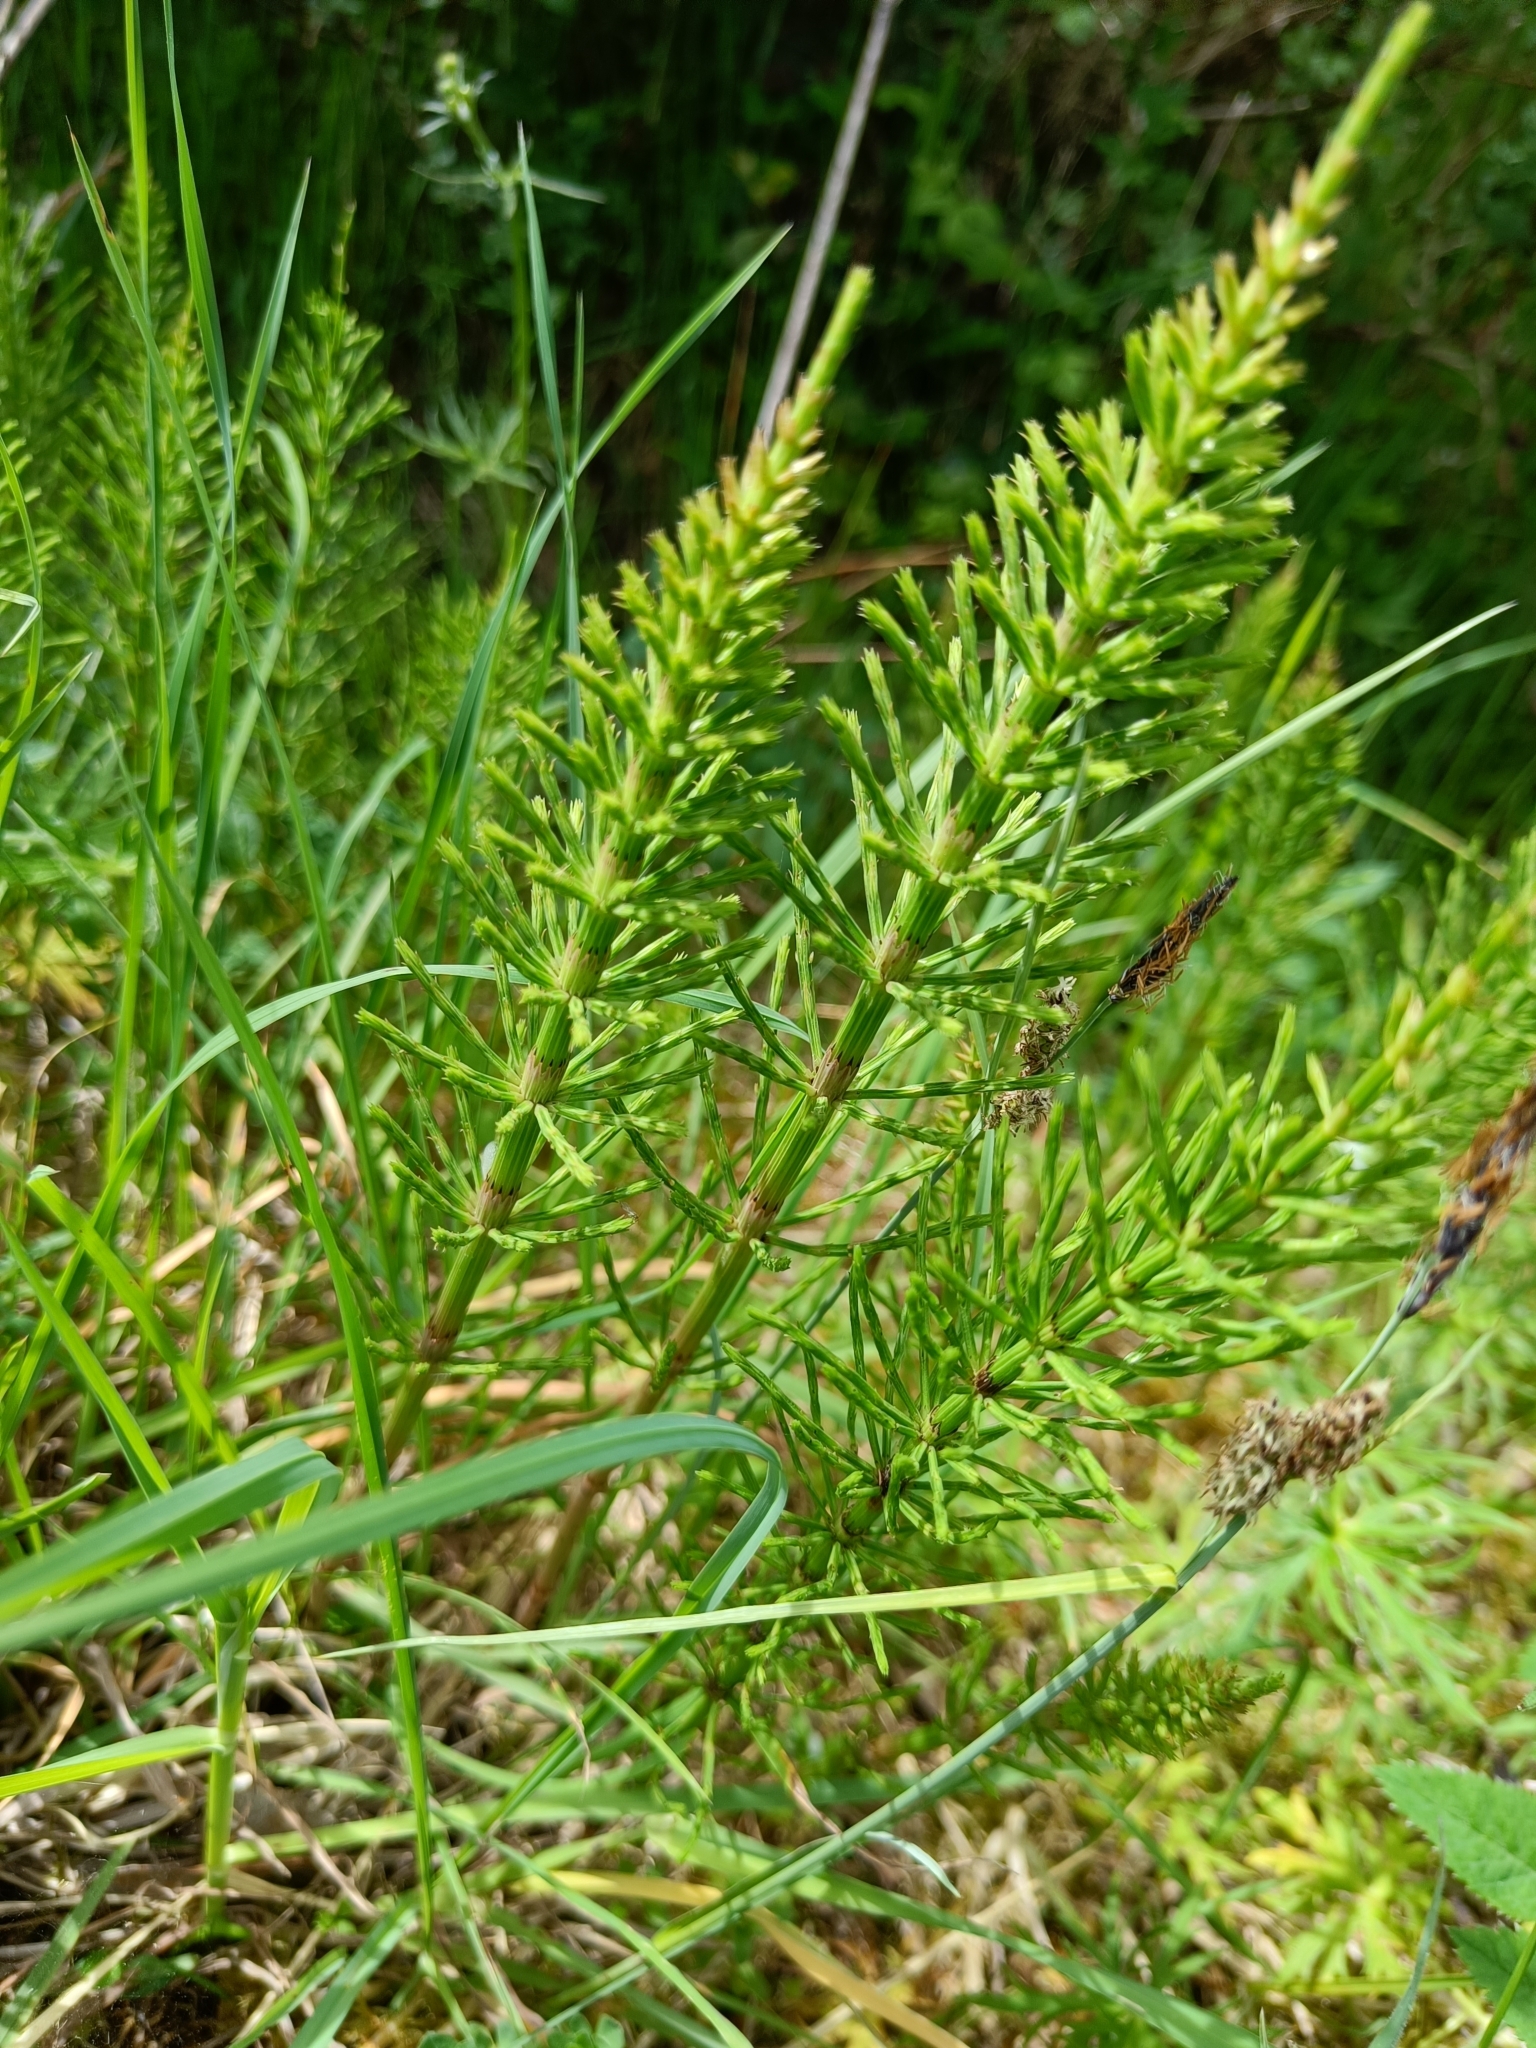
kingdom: Plantae
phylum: Tracheophyta
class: Polypodiopsida
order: Equisetales
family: Equisetaceae
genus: Equisetum
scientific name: Equisetum arvense
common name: Field horsetail
